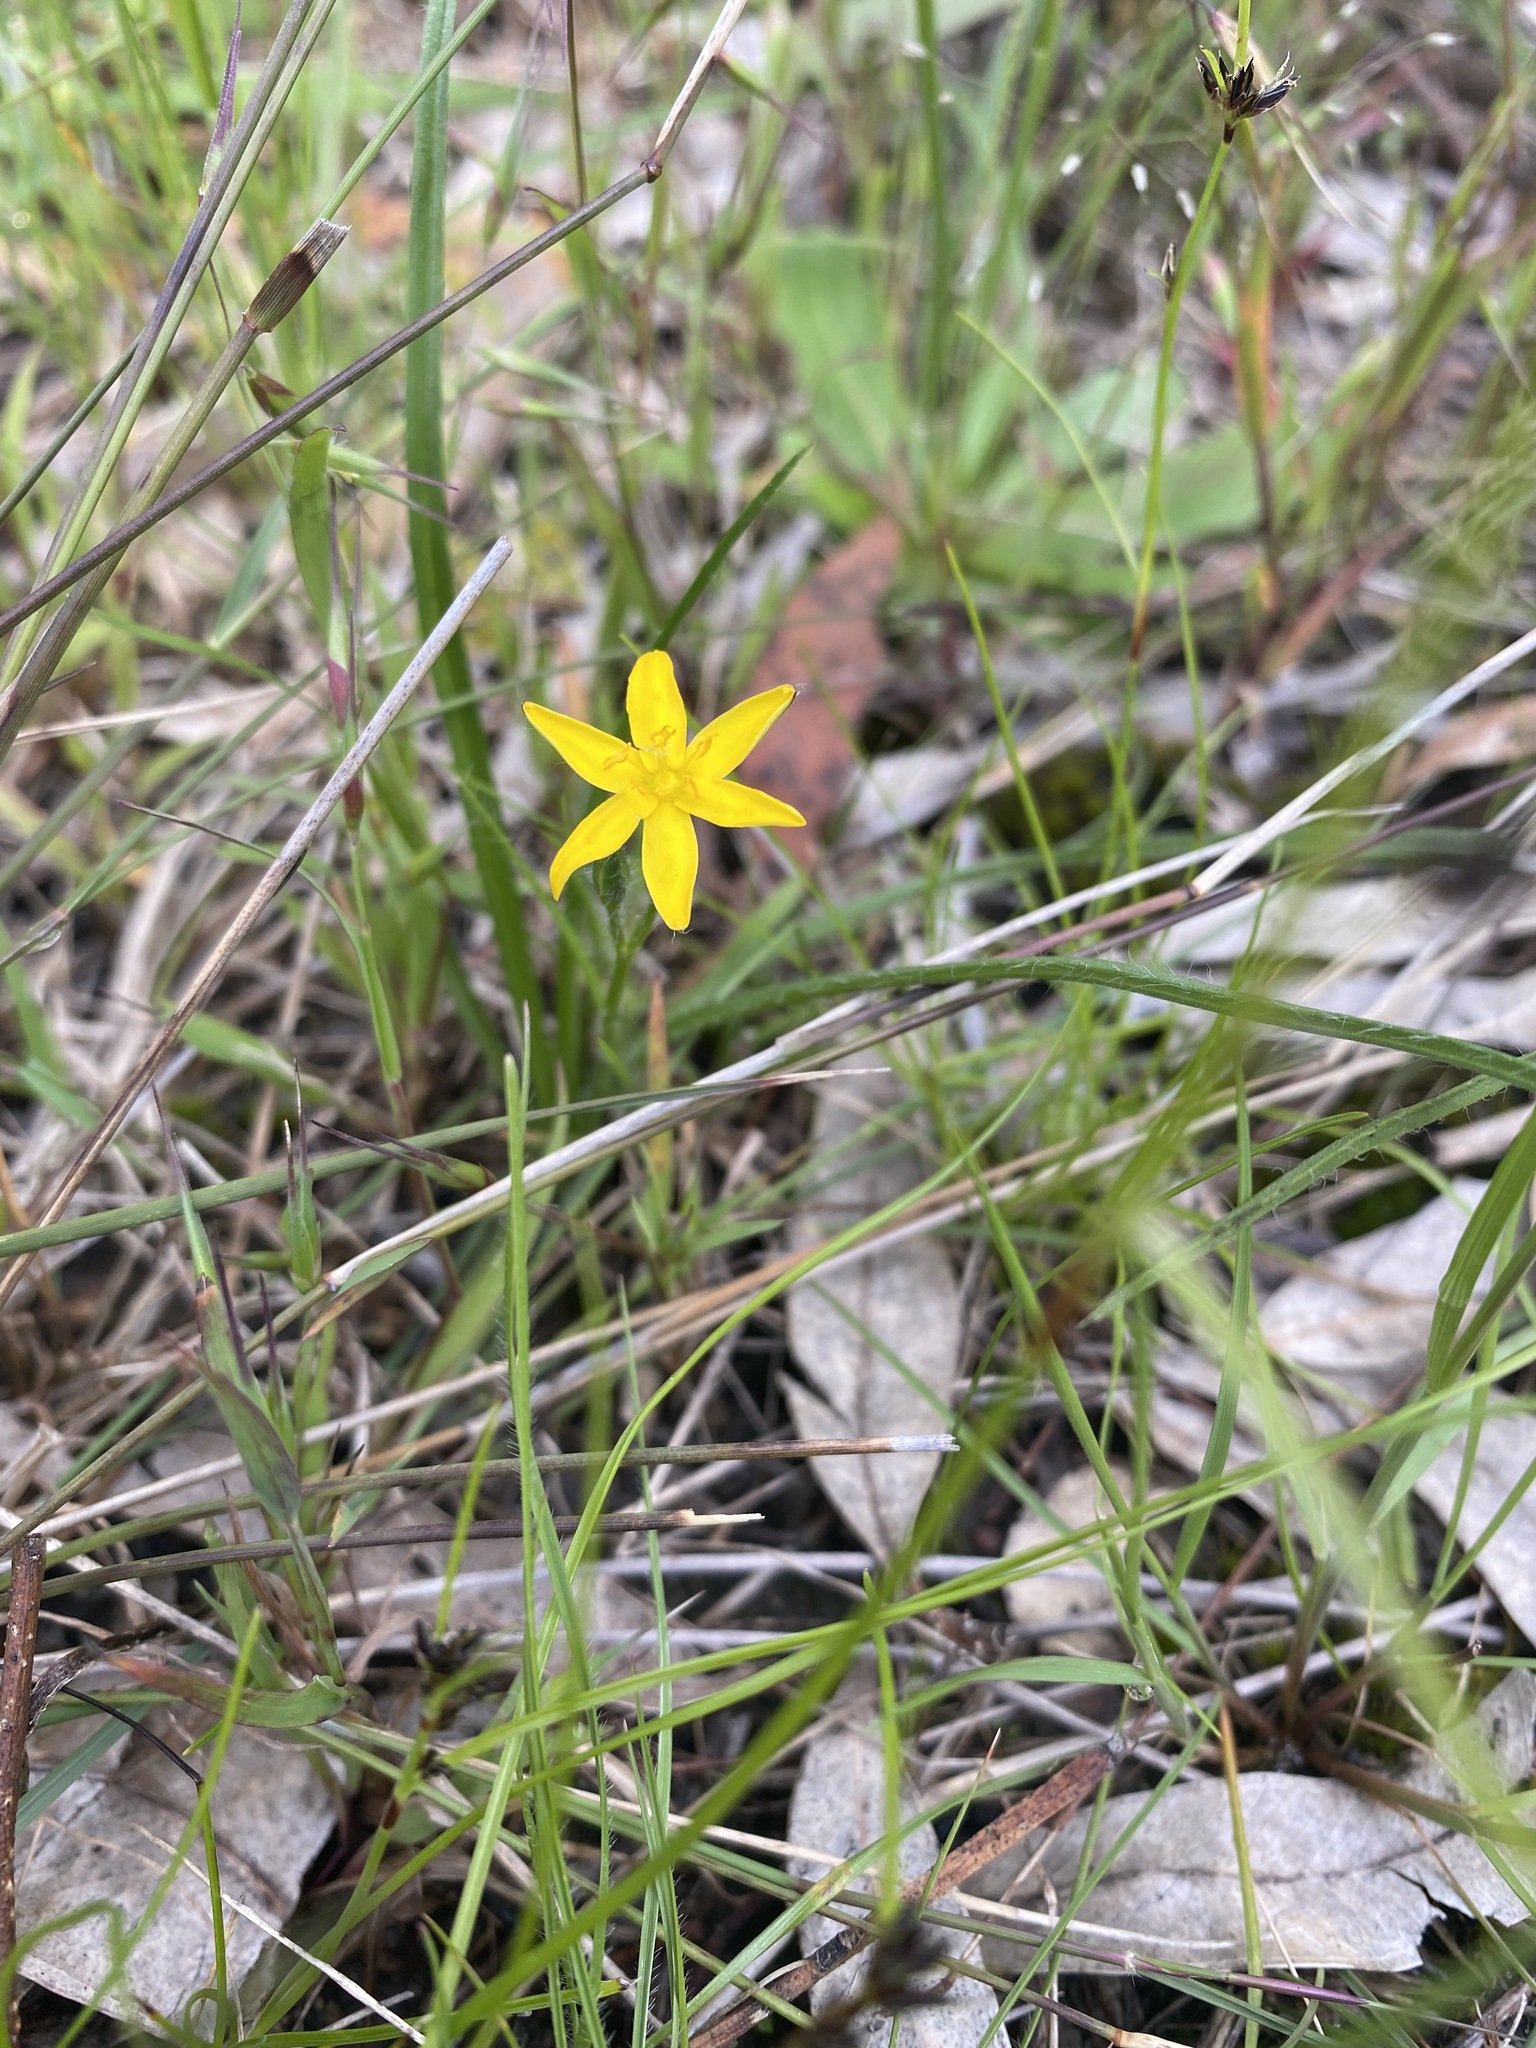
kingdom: Plantae
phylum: Tracheophyta
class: Liliopsida
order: Asparagales
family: Hypoxidaceae
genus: Hypoxis
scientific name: Hypoxis hygrometrica
